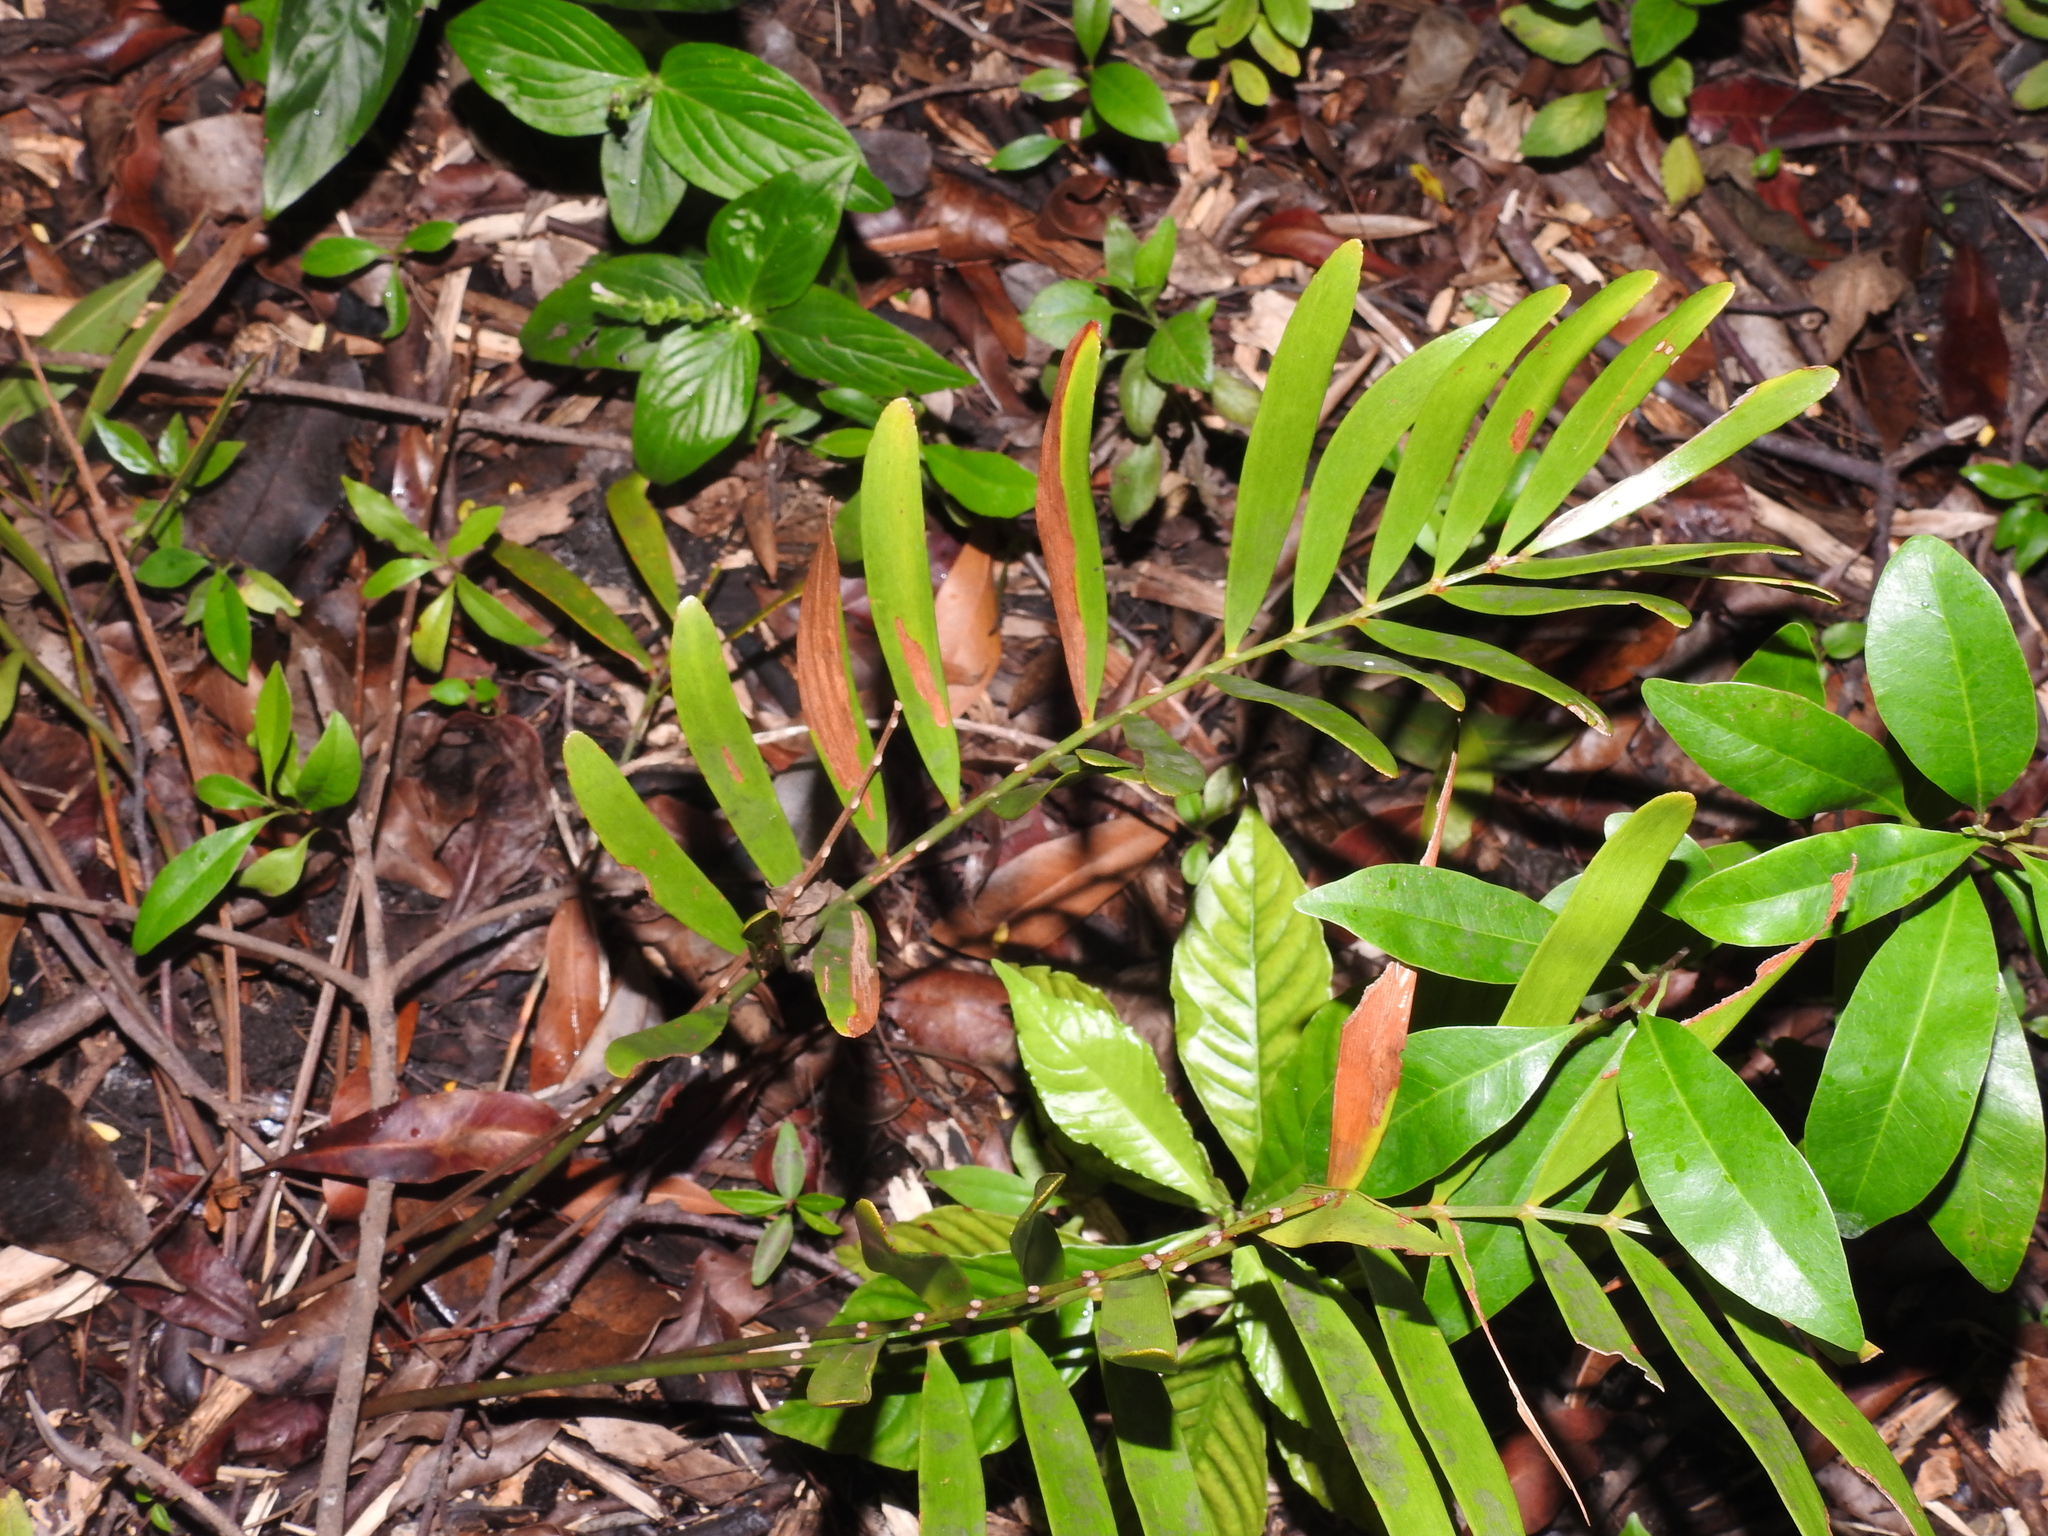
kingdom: Plantae
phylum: Tracheophyta
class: Cycadopsida
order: Cycadales
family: Zamiaceae
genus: Zamia
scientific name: Zamia integrifolia
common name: Florida arrowroot
